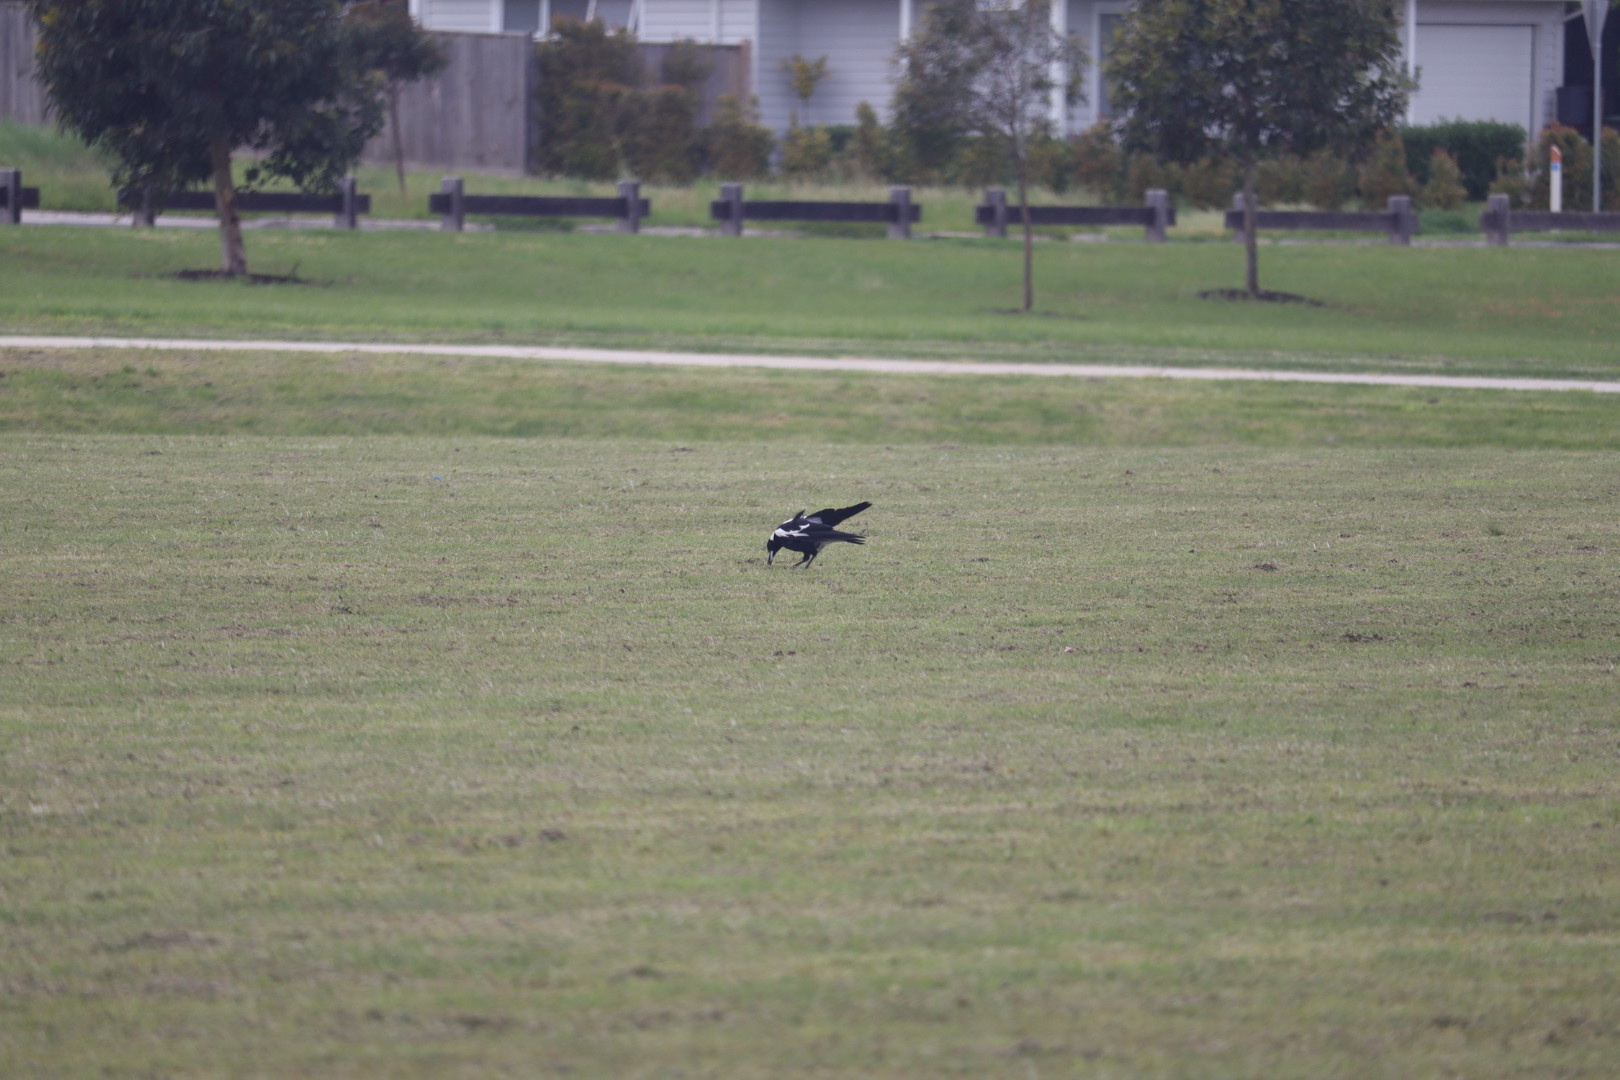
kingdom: Animalia
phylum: Chordata
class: Aves
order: Passeriformes
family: Cracticidae
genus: Gymnorhina
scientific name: Gymnorhina tibicen
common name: Australian magpie
